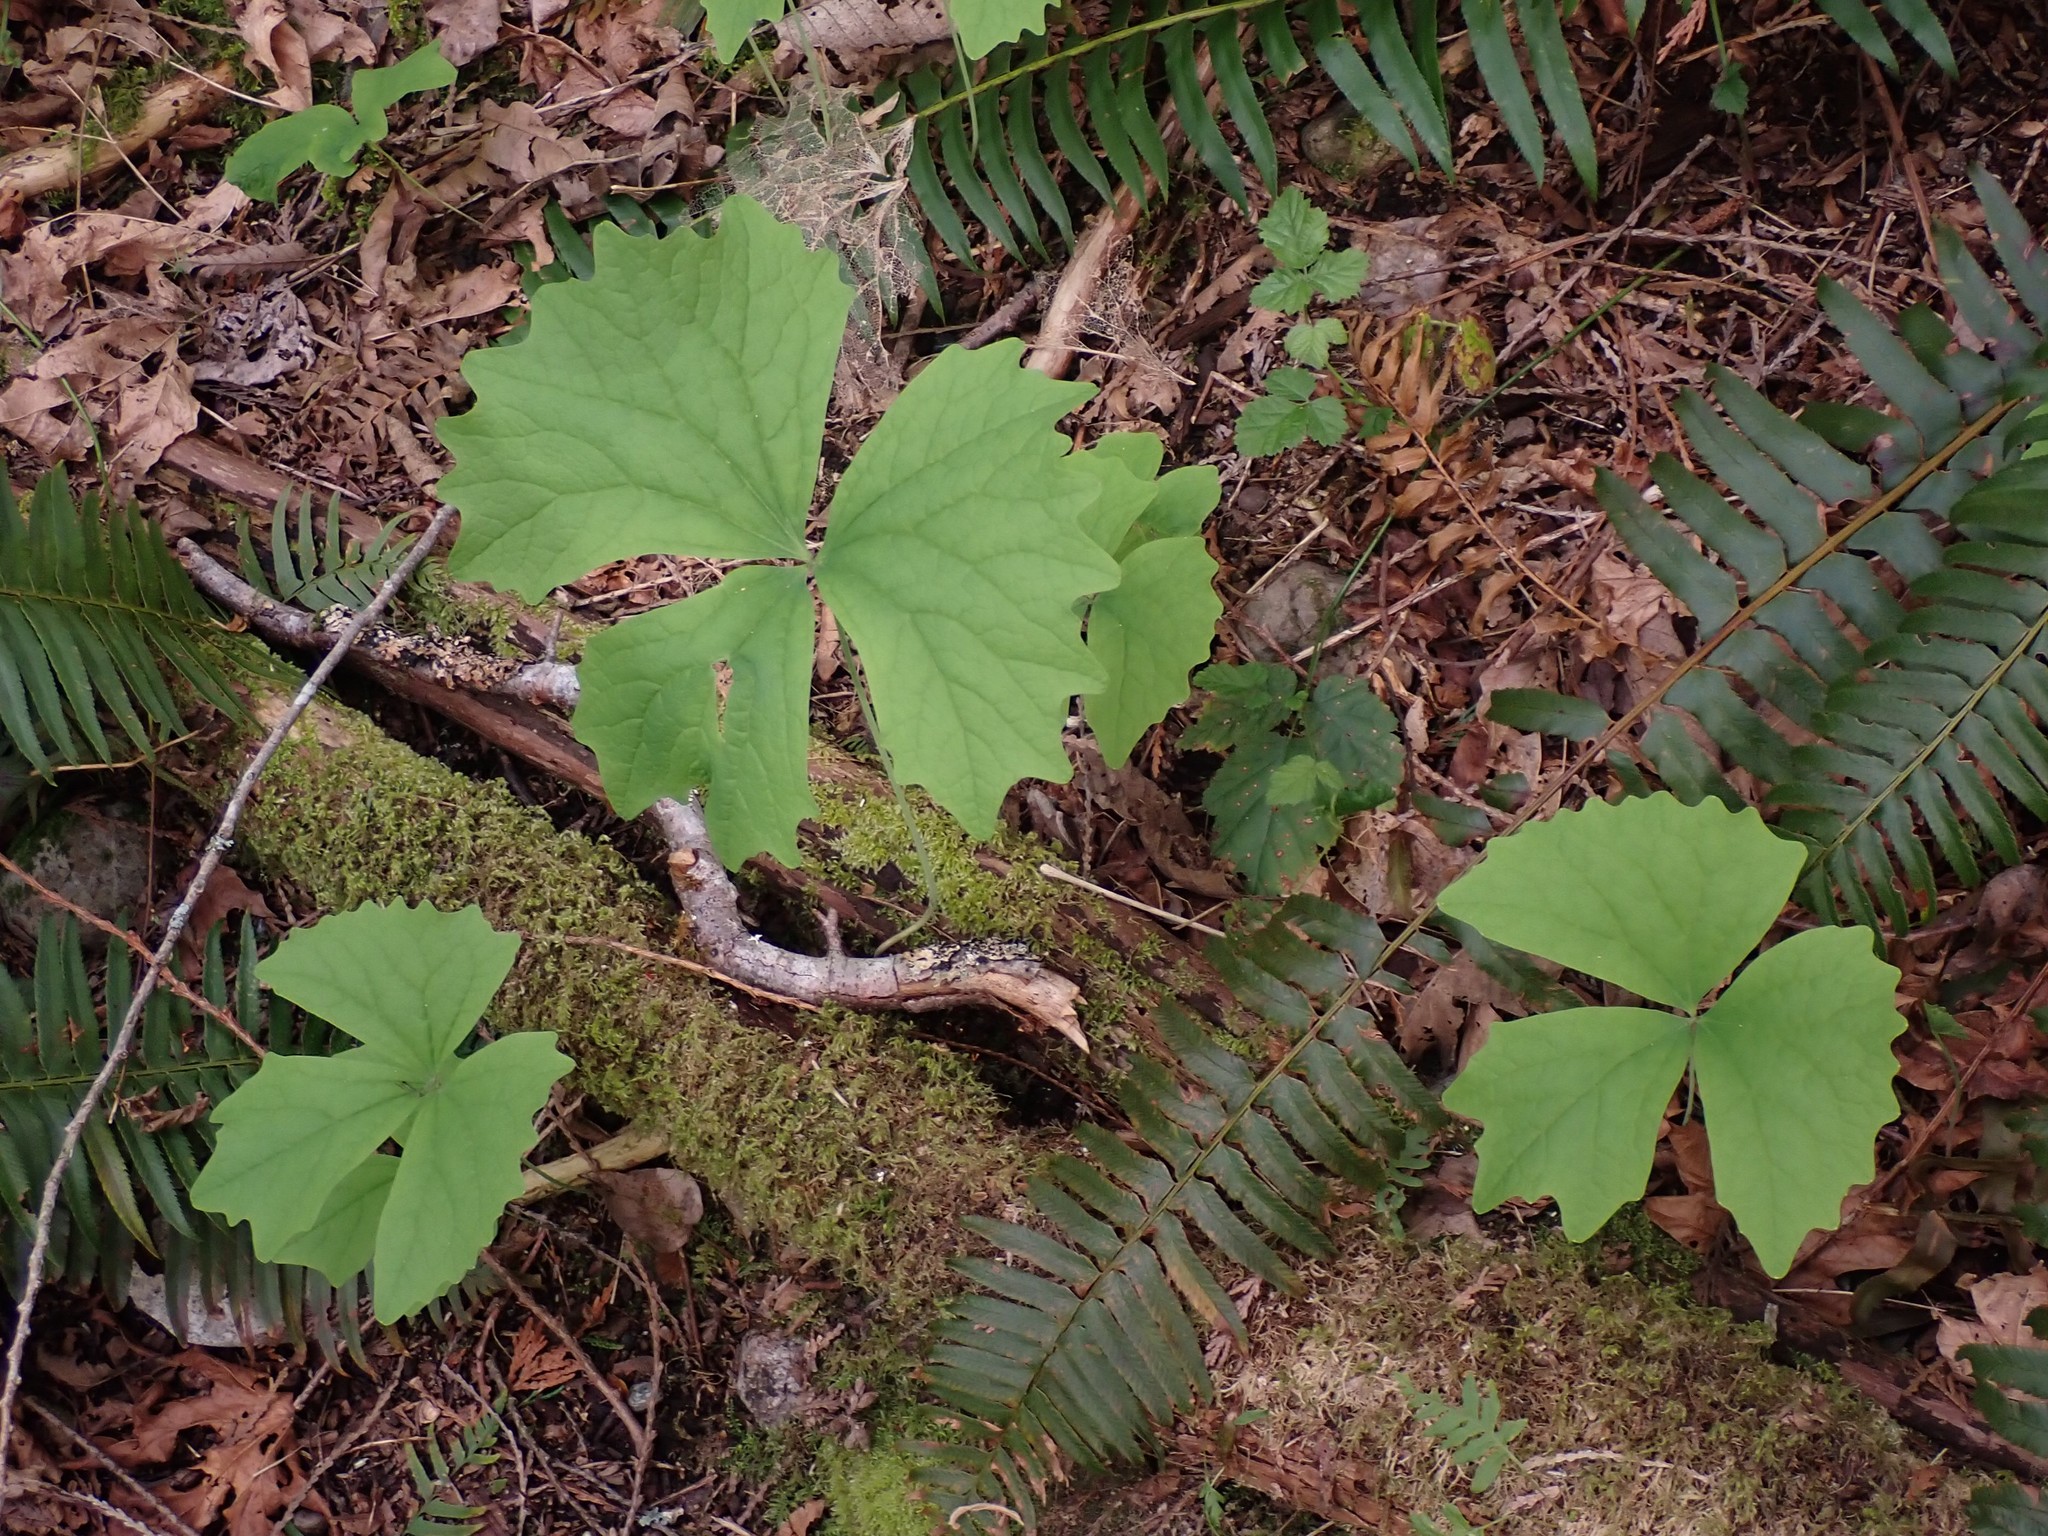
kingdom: Plantae
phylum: Tracheophyta
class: Magnoliopsida
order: Ranunculales
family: Berberidaceae
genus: Achlys
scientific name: Achlys triphylla
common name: Vanilla-leaf
